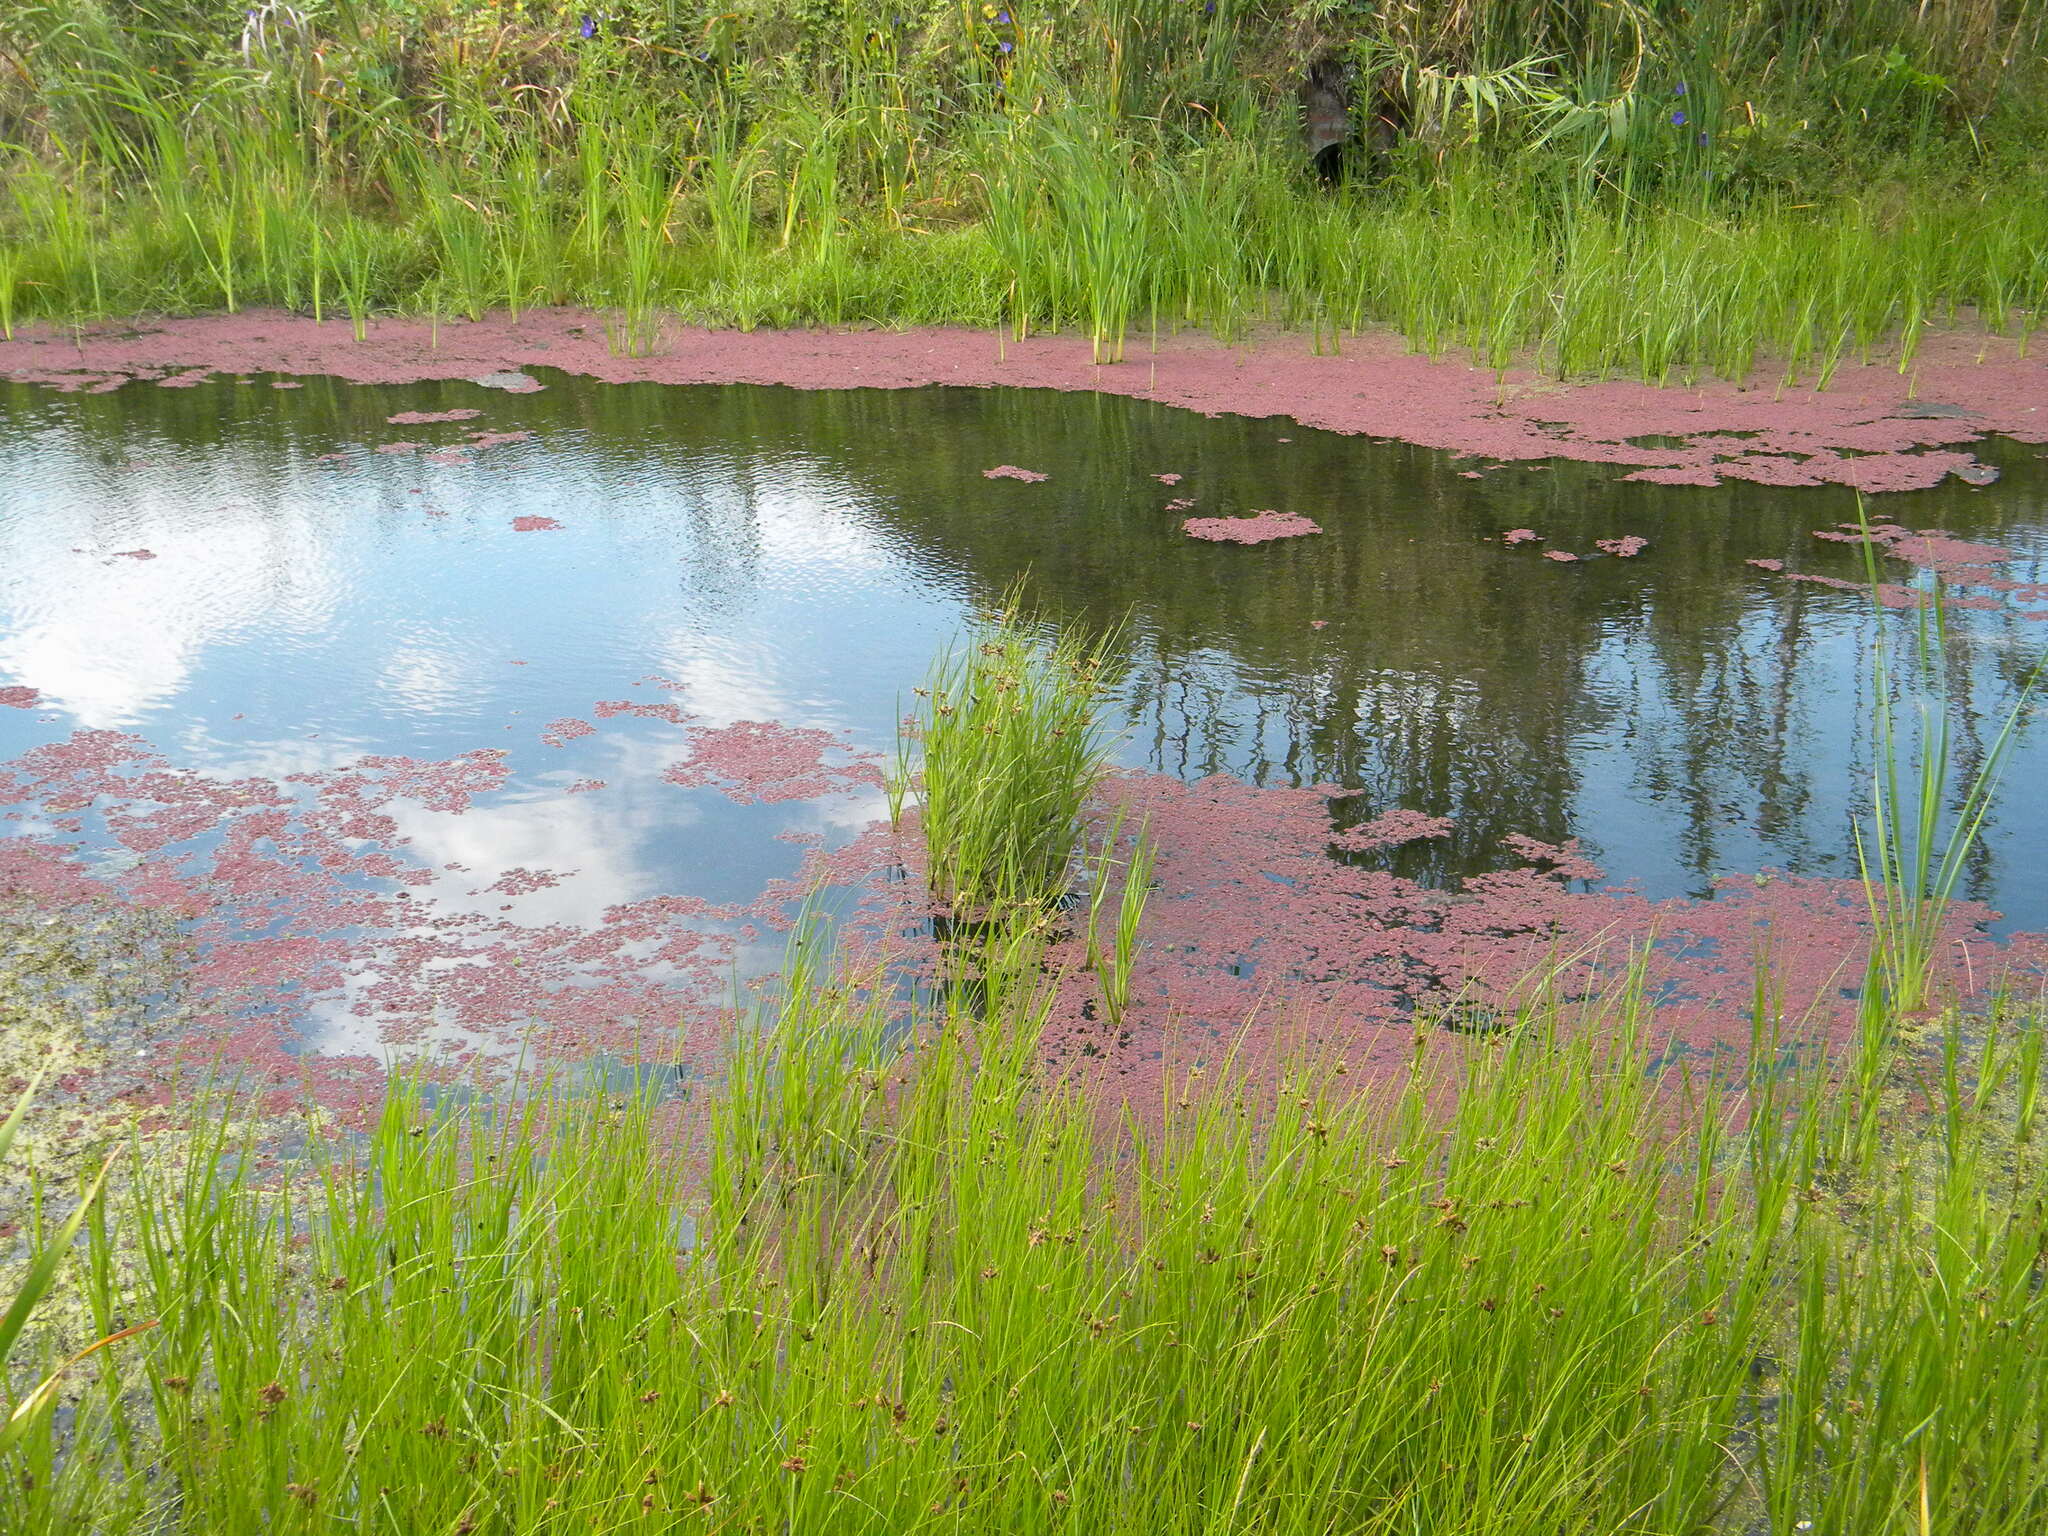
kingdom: Plantae
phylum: Tracheophyta
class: Polypodiopsida
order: Salviniales
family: Salviniaceae
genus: Azolla
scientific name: Azolla filiculoides
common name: Water fern
